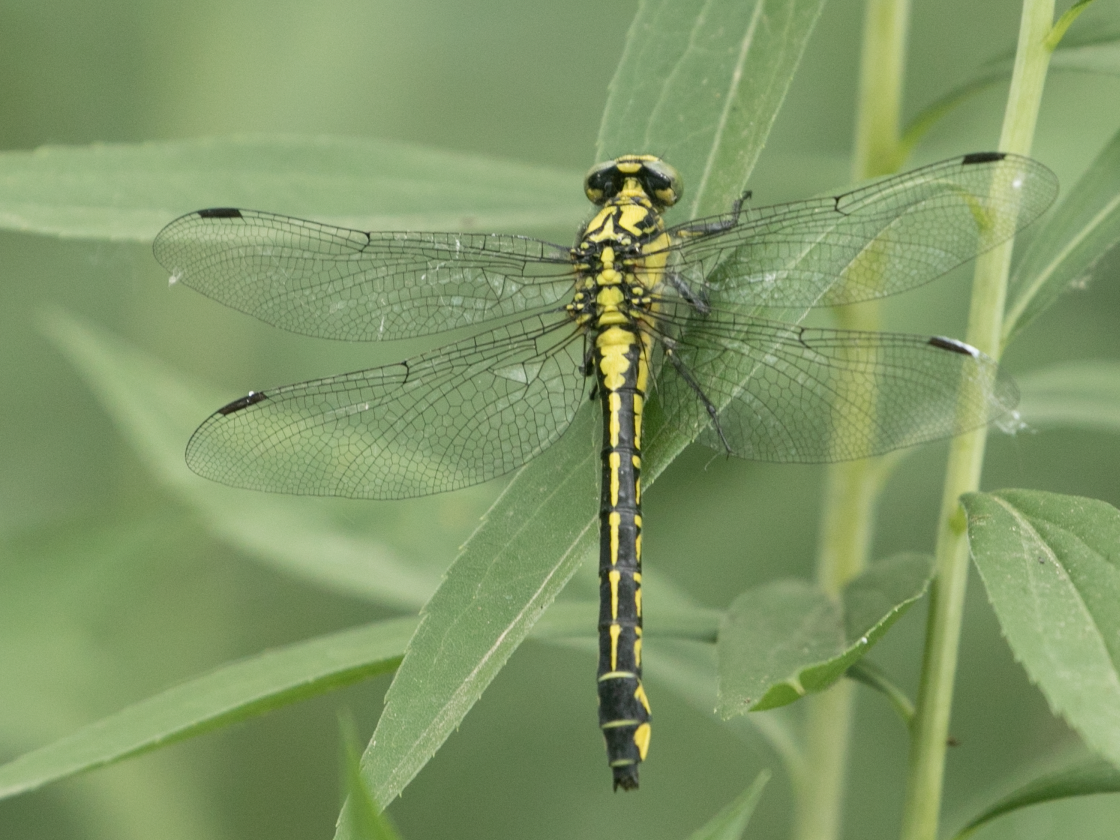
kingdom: Animalia
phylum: Arthropoda
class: Insecta
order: Odonata
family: Gomphidae
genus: Gomphus
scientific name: Gomphus vulgatissimus
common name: Club-tailed dragonfly
